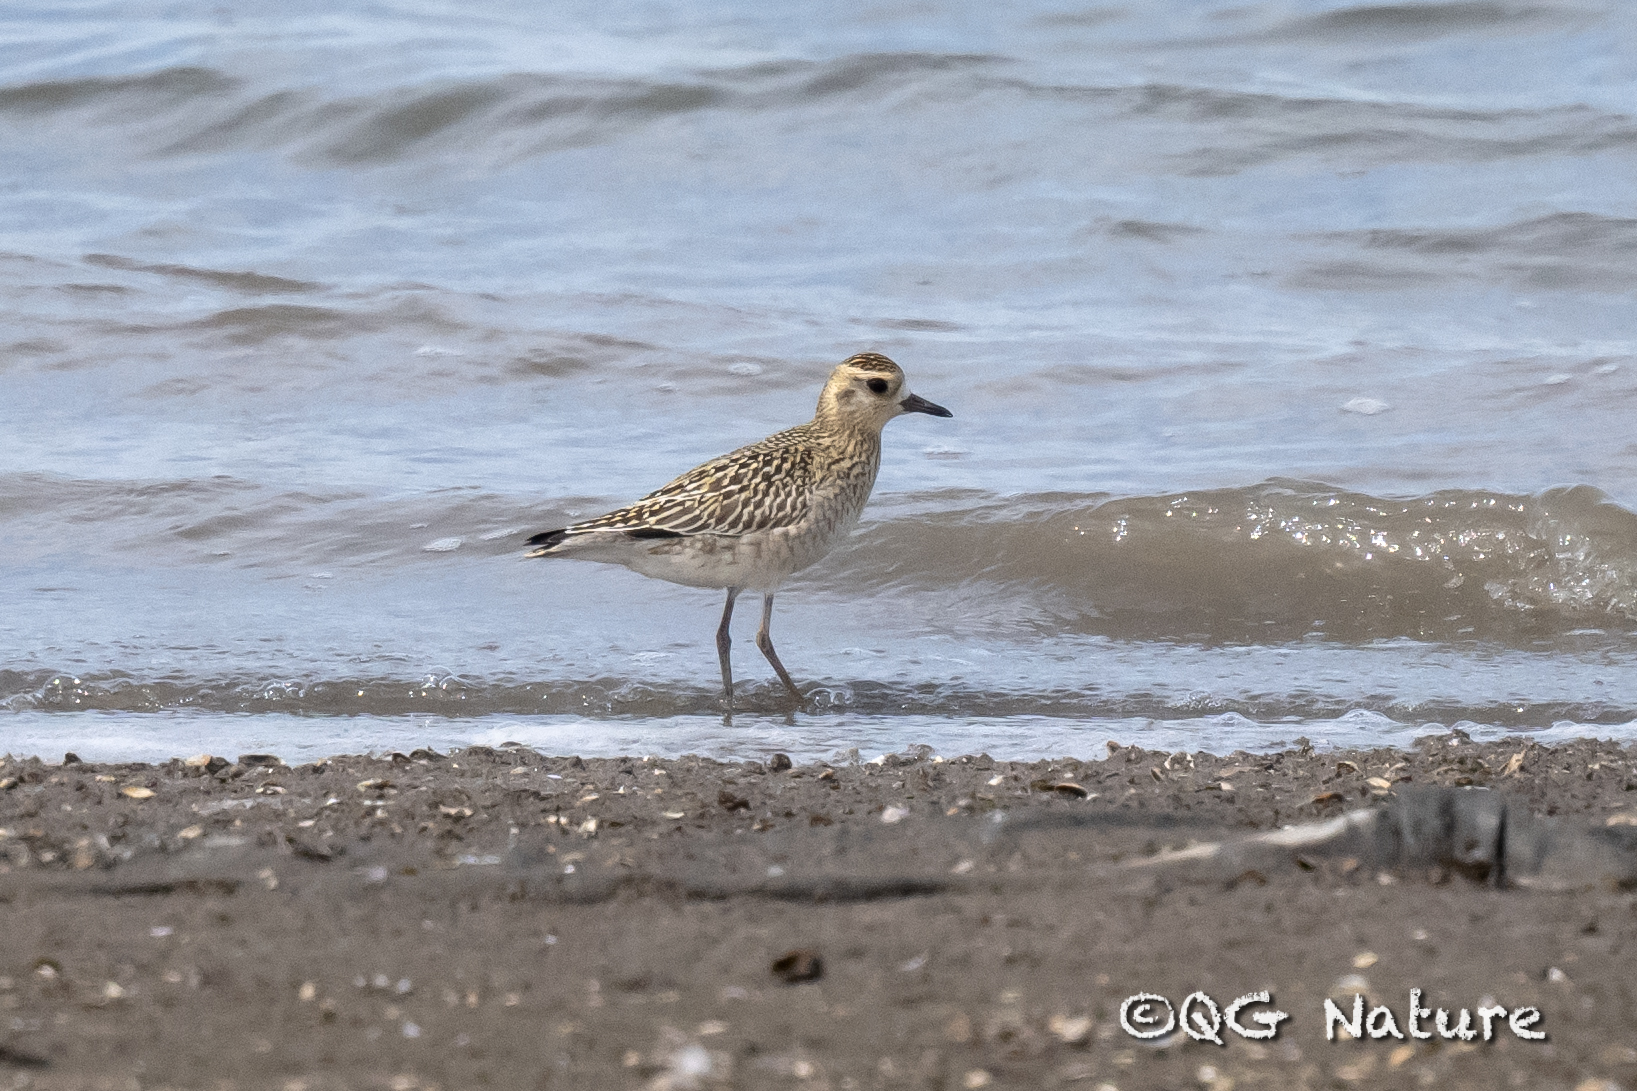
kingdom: Animalia
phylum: Chordata
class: Aves
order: Charadriiformes
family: Charadriidae
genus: Pluvialis
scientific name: Pluvialis fulva
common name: Pacific golden plover
